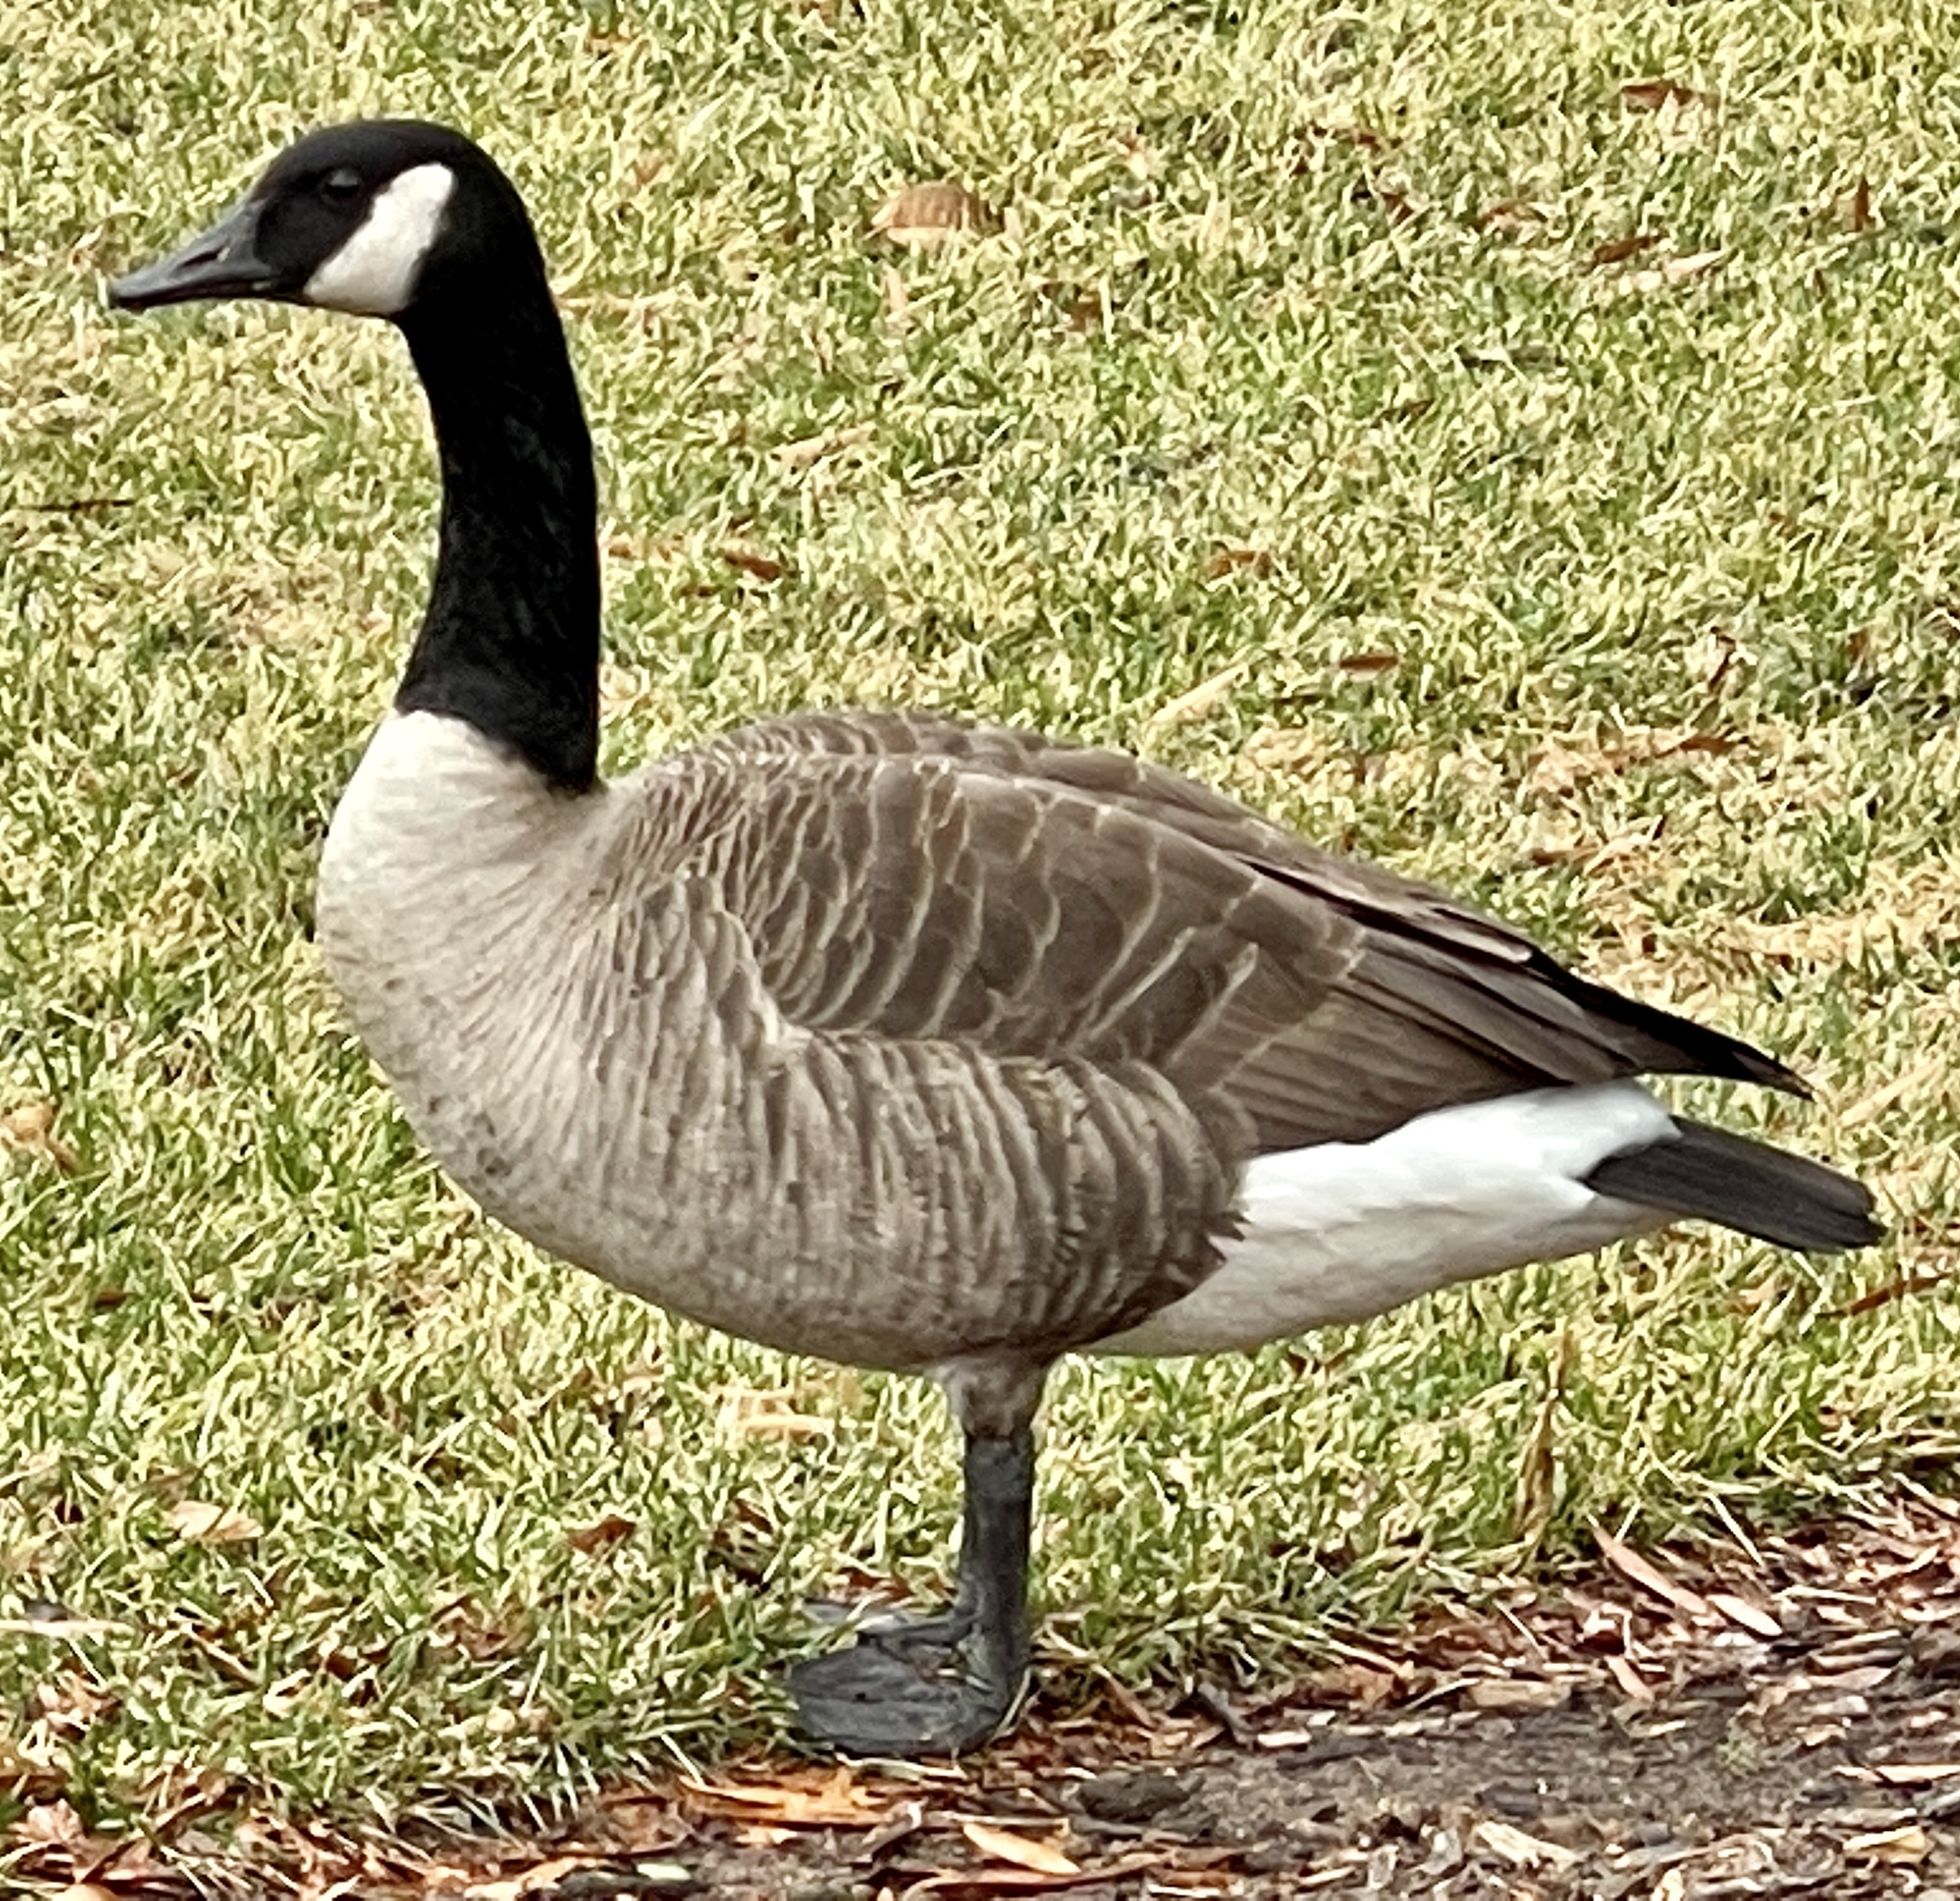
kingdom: Animalia
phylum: Chordata
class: Aves
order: Anseriformes
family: Anatidae
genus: Branta
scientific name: Branta canadensis
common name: Canada goose
